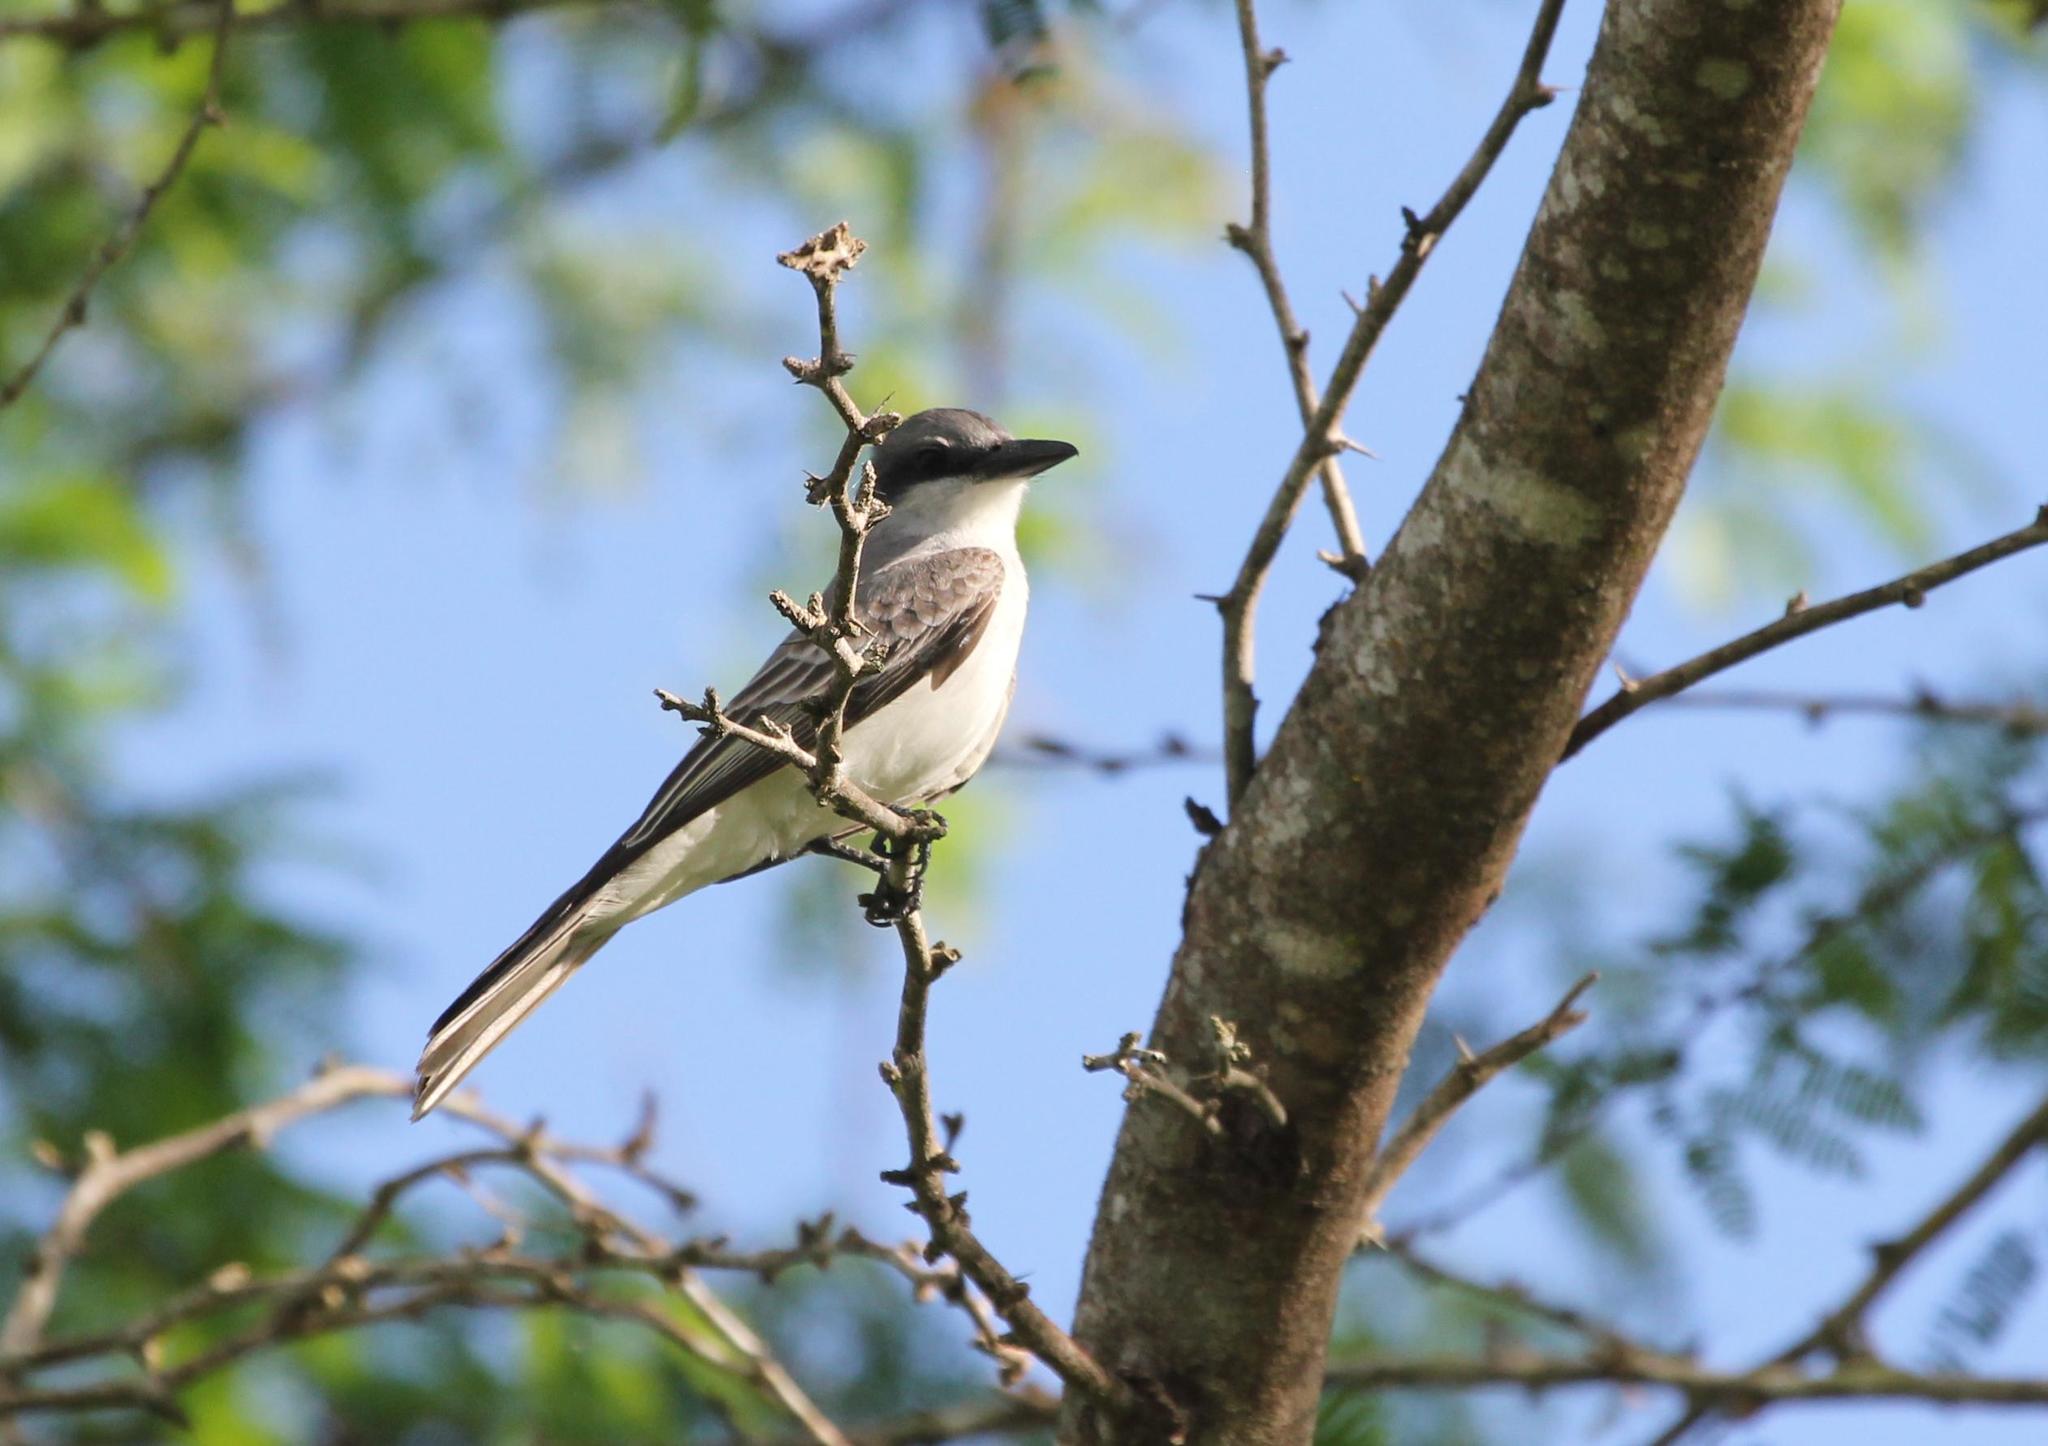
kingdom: Animalia
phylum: Chordata
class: Aves
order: Passeriformes
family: Tyrannidae
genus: Tyrannus
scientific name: Tyrannus dominicensis
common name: Gray kingbird
